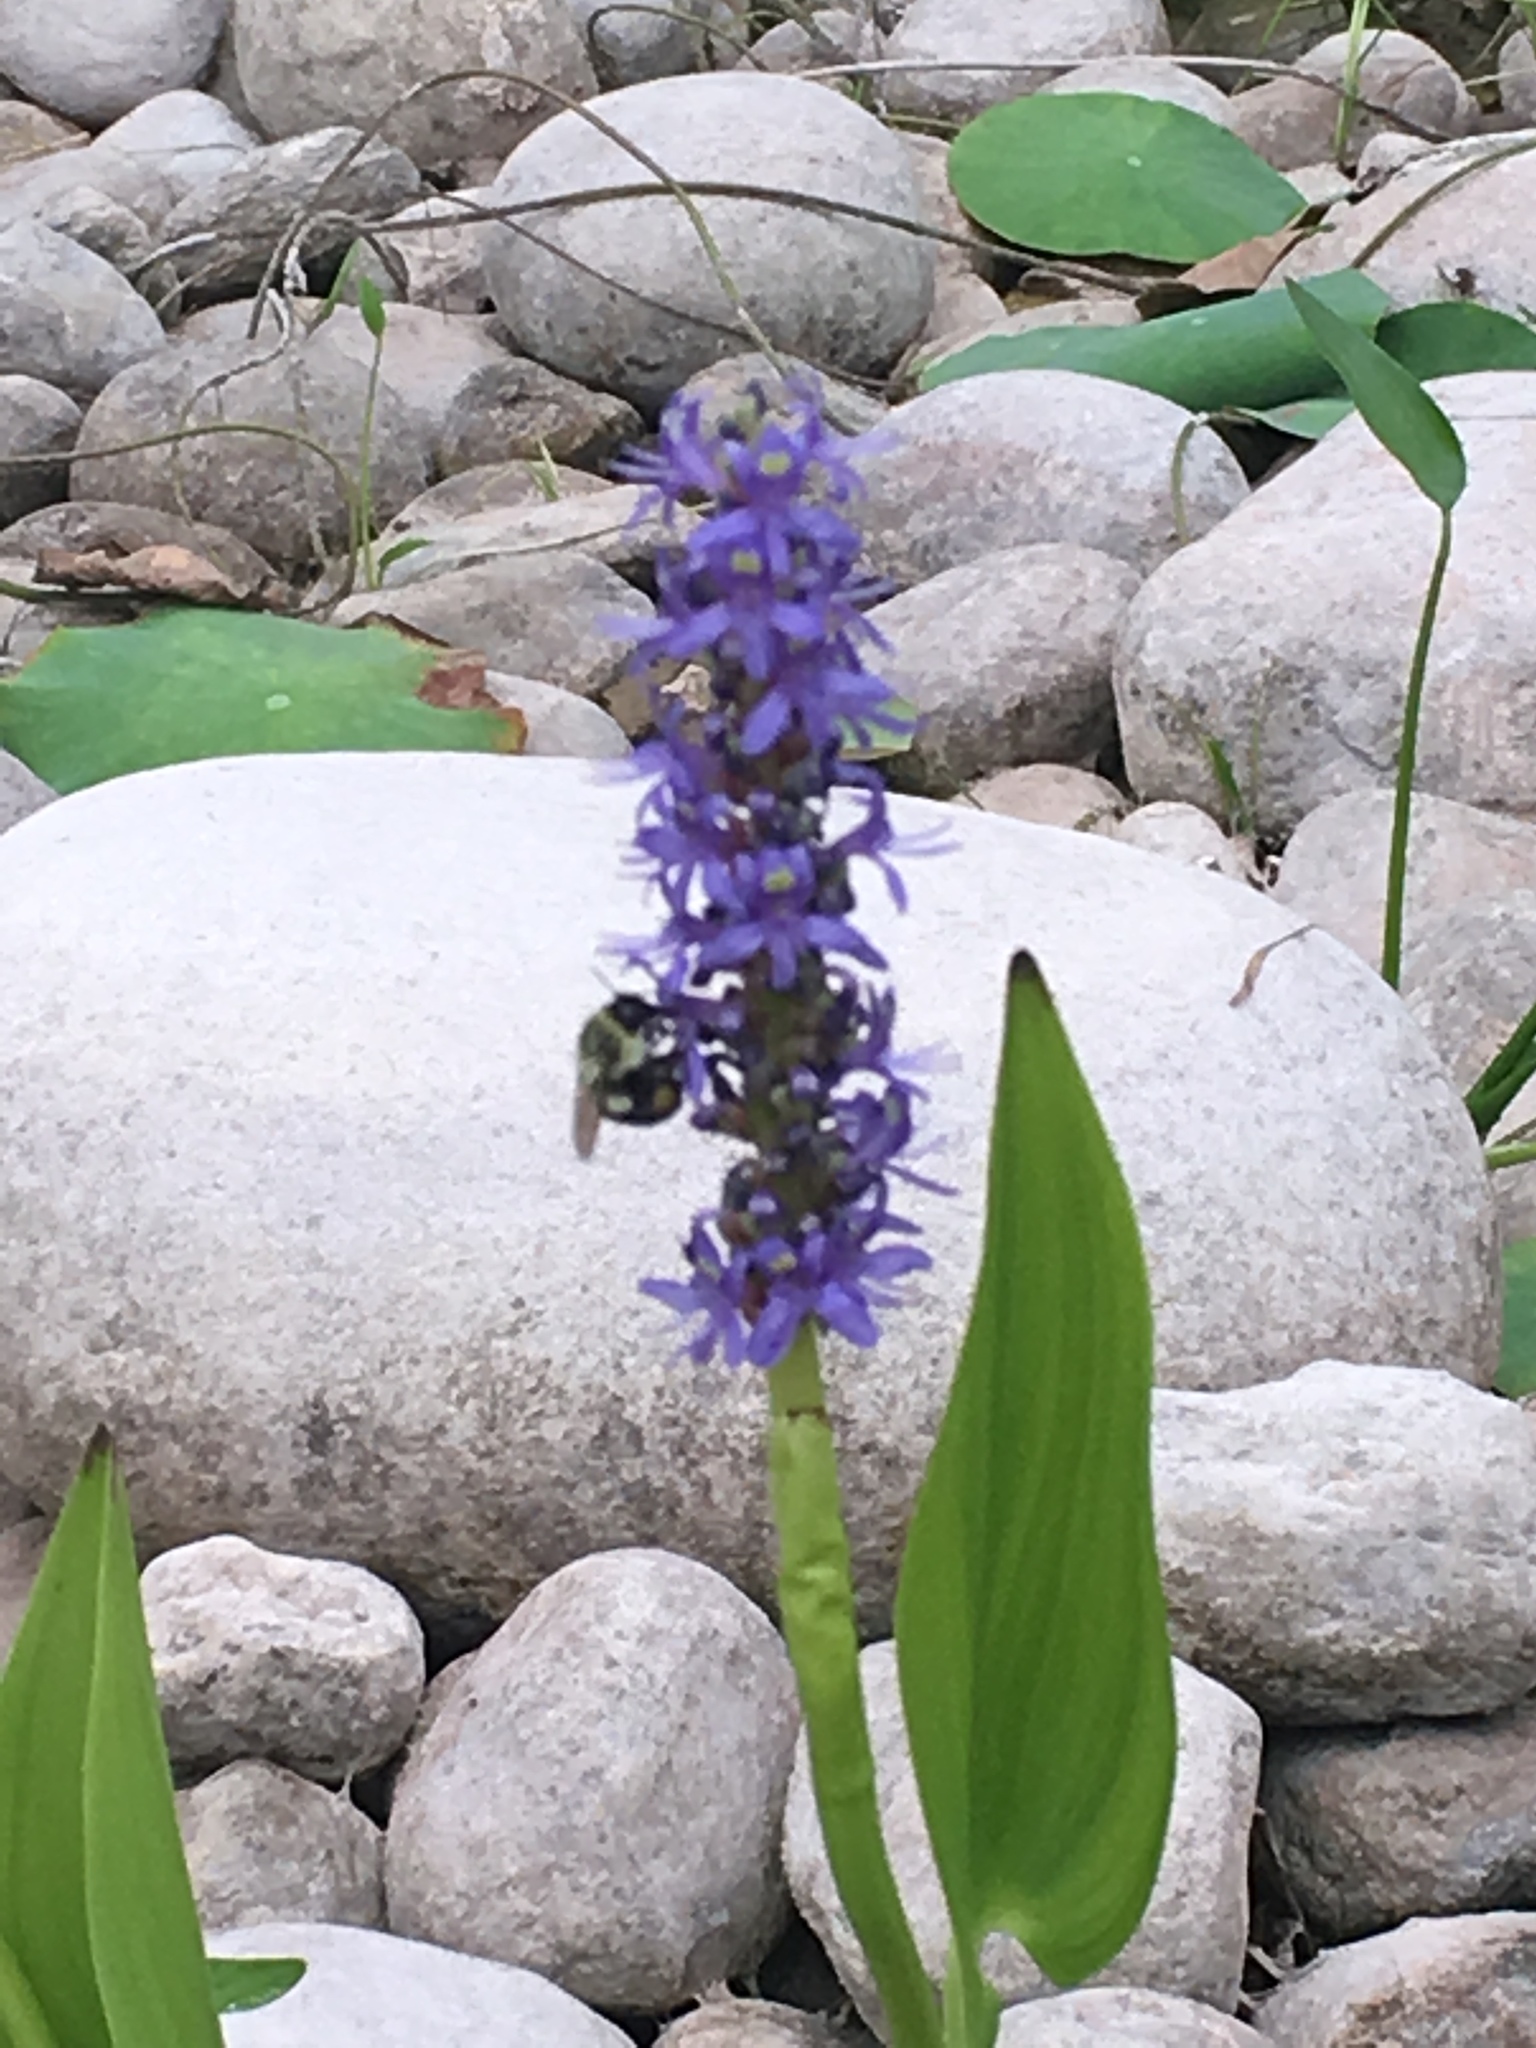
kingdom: Animalia
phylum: Arthropoda
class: Insecta
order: Hymenoptera
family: Apidae
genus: Bombus
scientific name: Bombus impatiens
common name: Common eastern bumble bee
